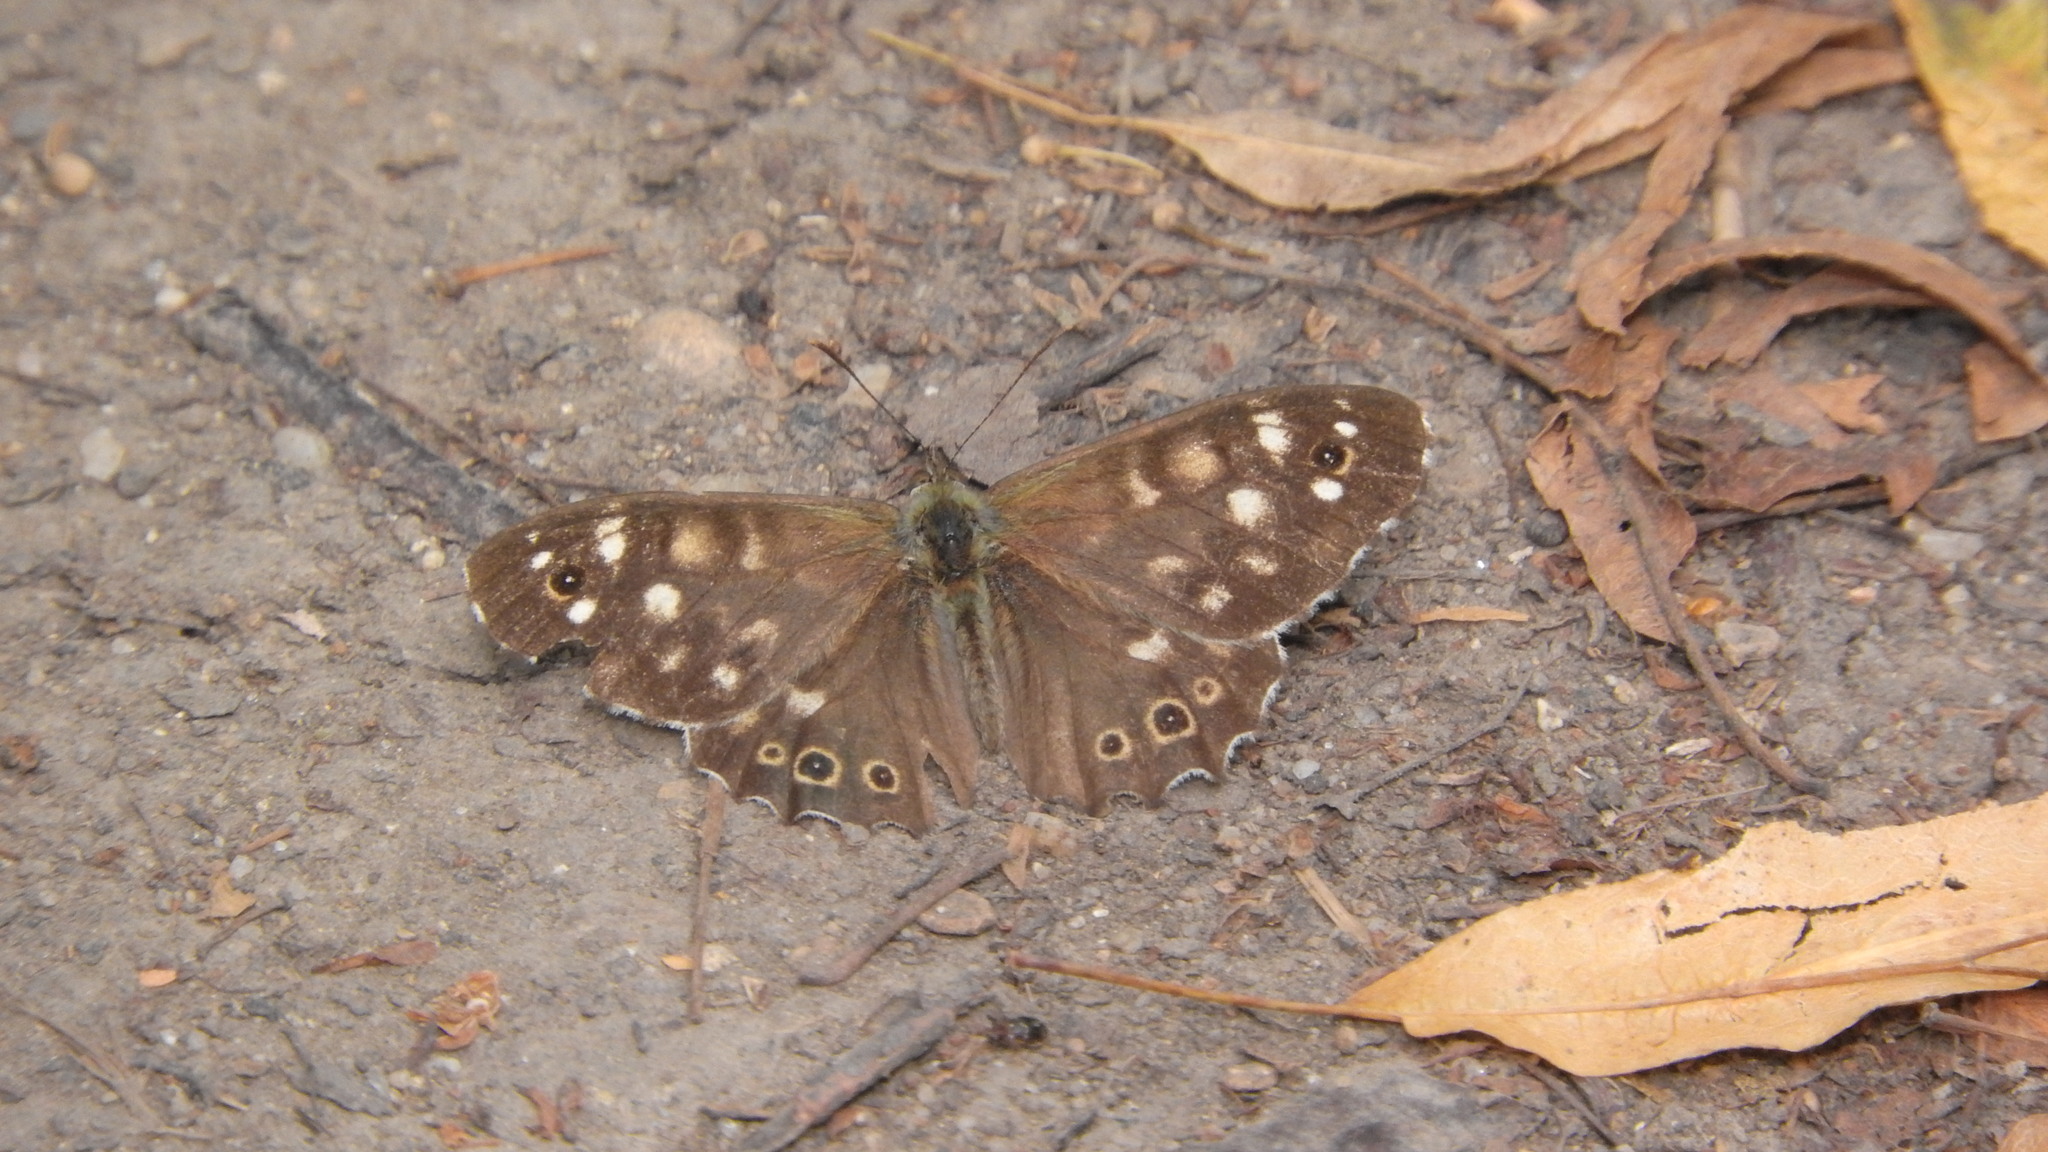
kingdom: Animalia
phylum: Arthropoda
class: Insecta
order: Lepidoptera
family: Nymphalidae
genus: Pararge
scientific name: Pararge aegeria
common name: Speckled wood
